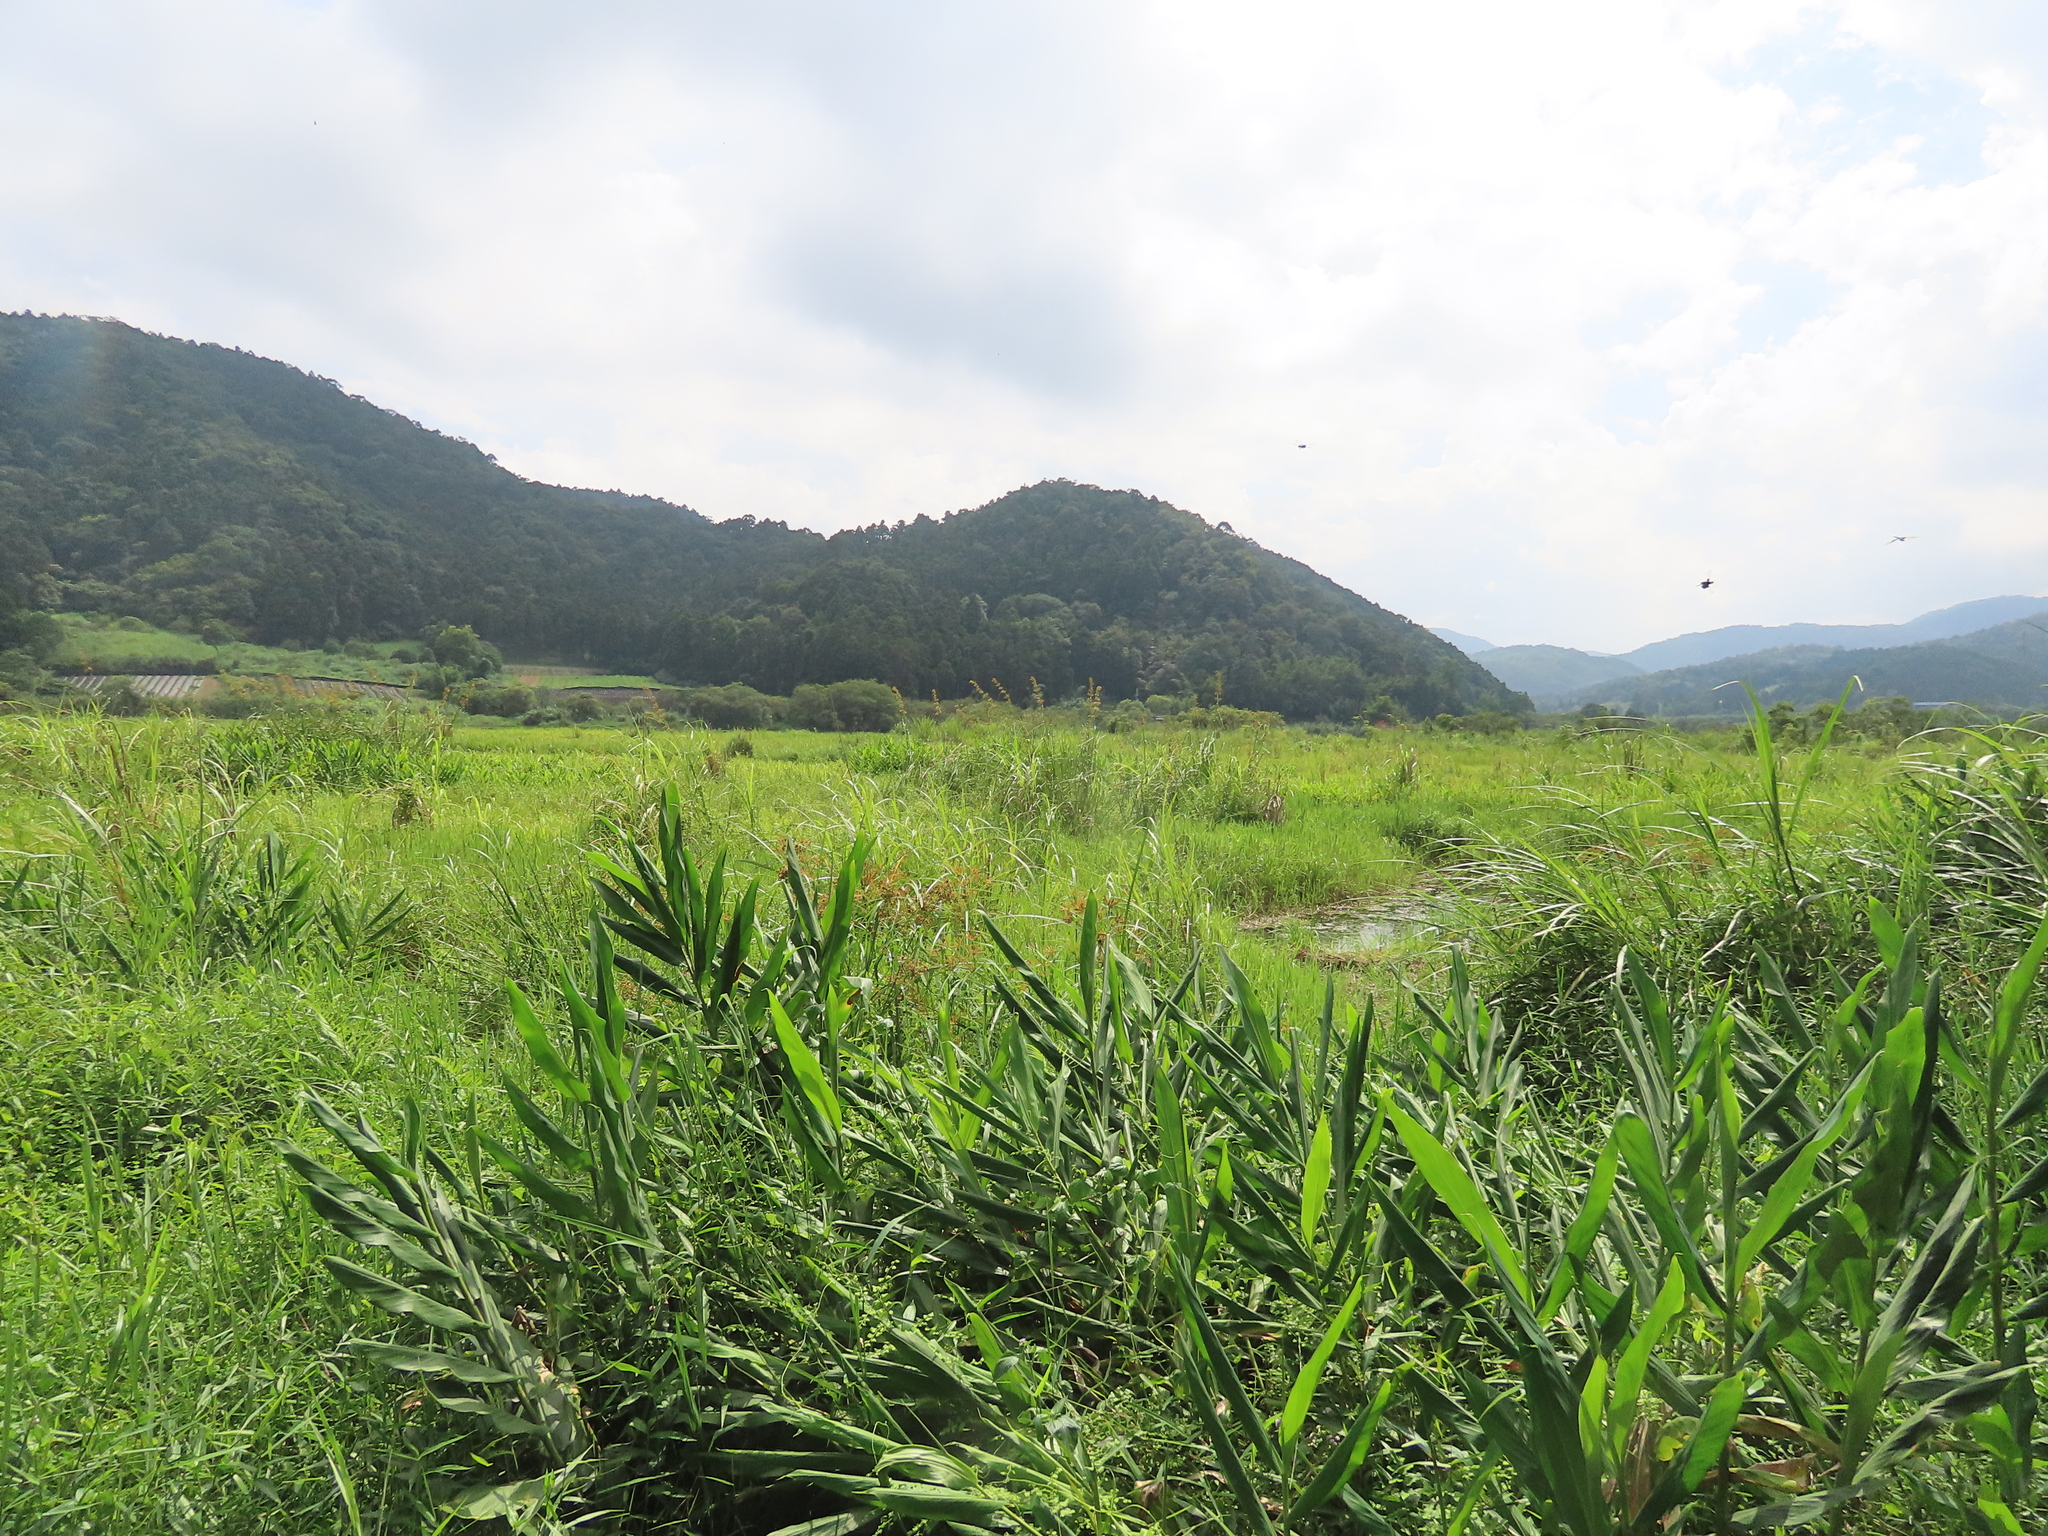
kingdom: Plantae
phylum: Tracheophyta
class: Liliopsida
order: Poales
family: Cyperaceae
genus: Cladium
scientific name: Cladium mariscus
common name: Great fen-sedge
